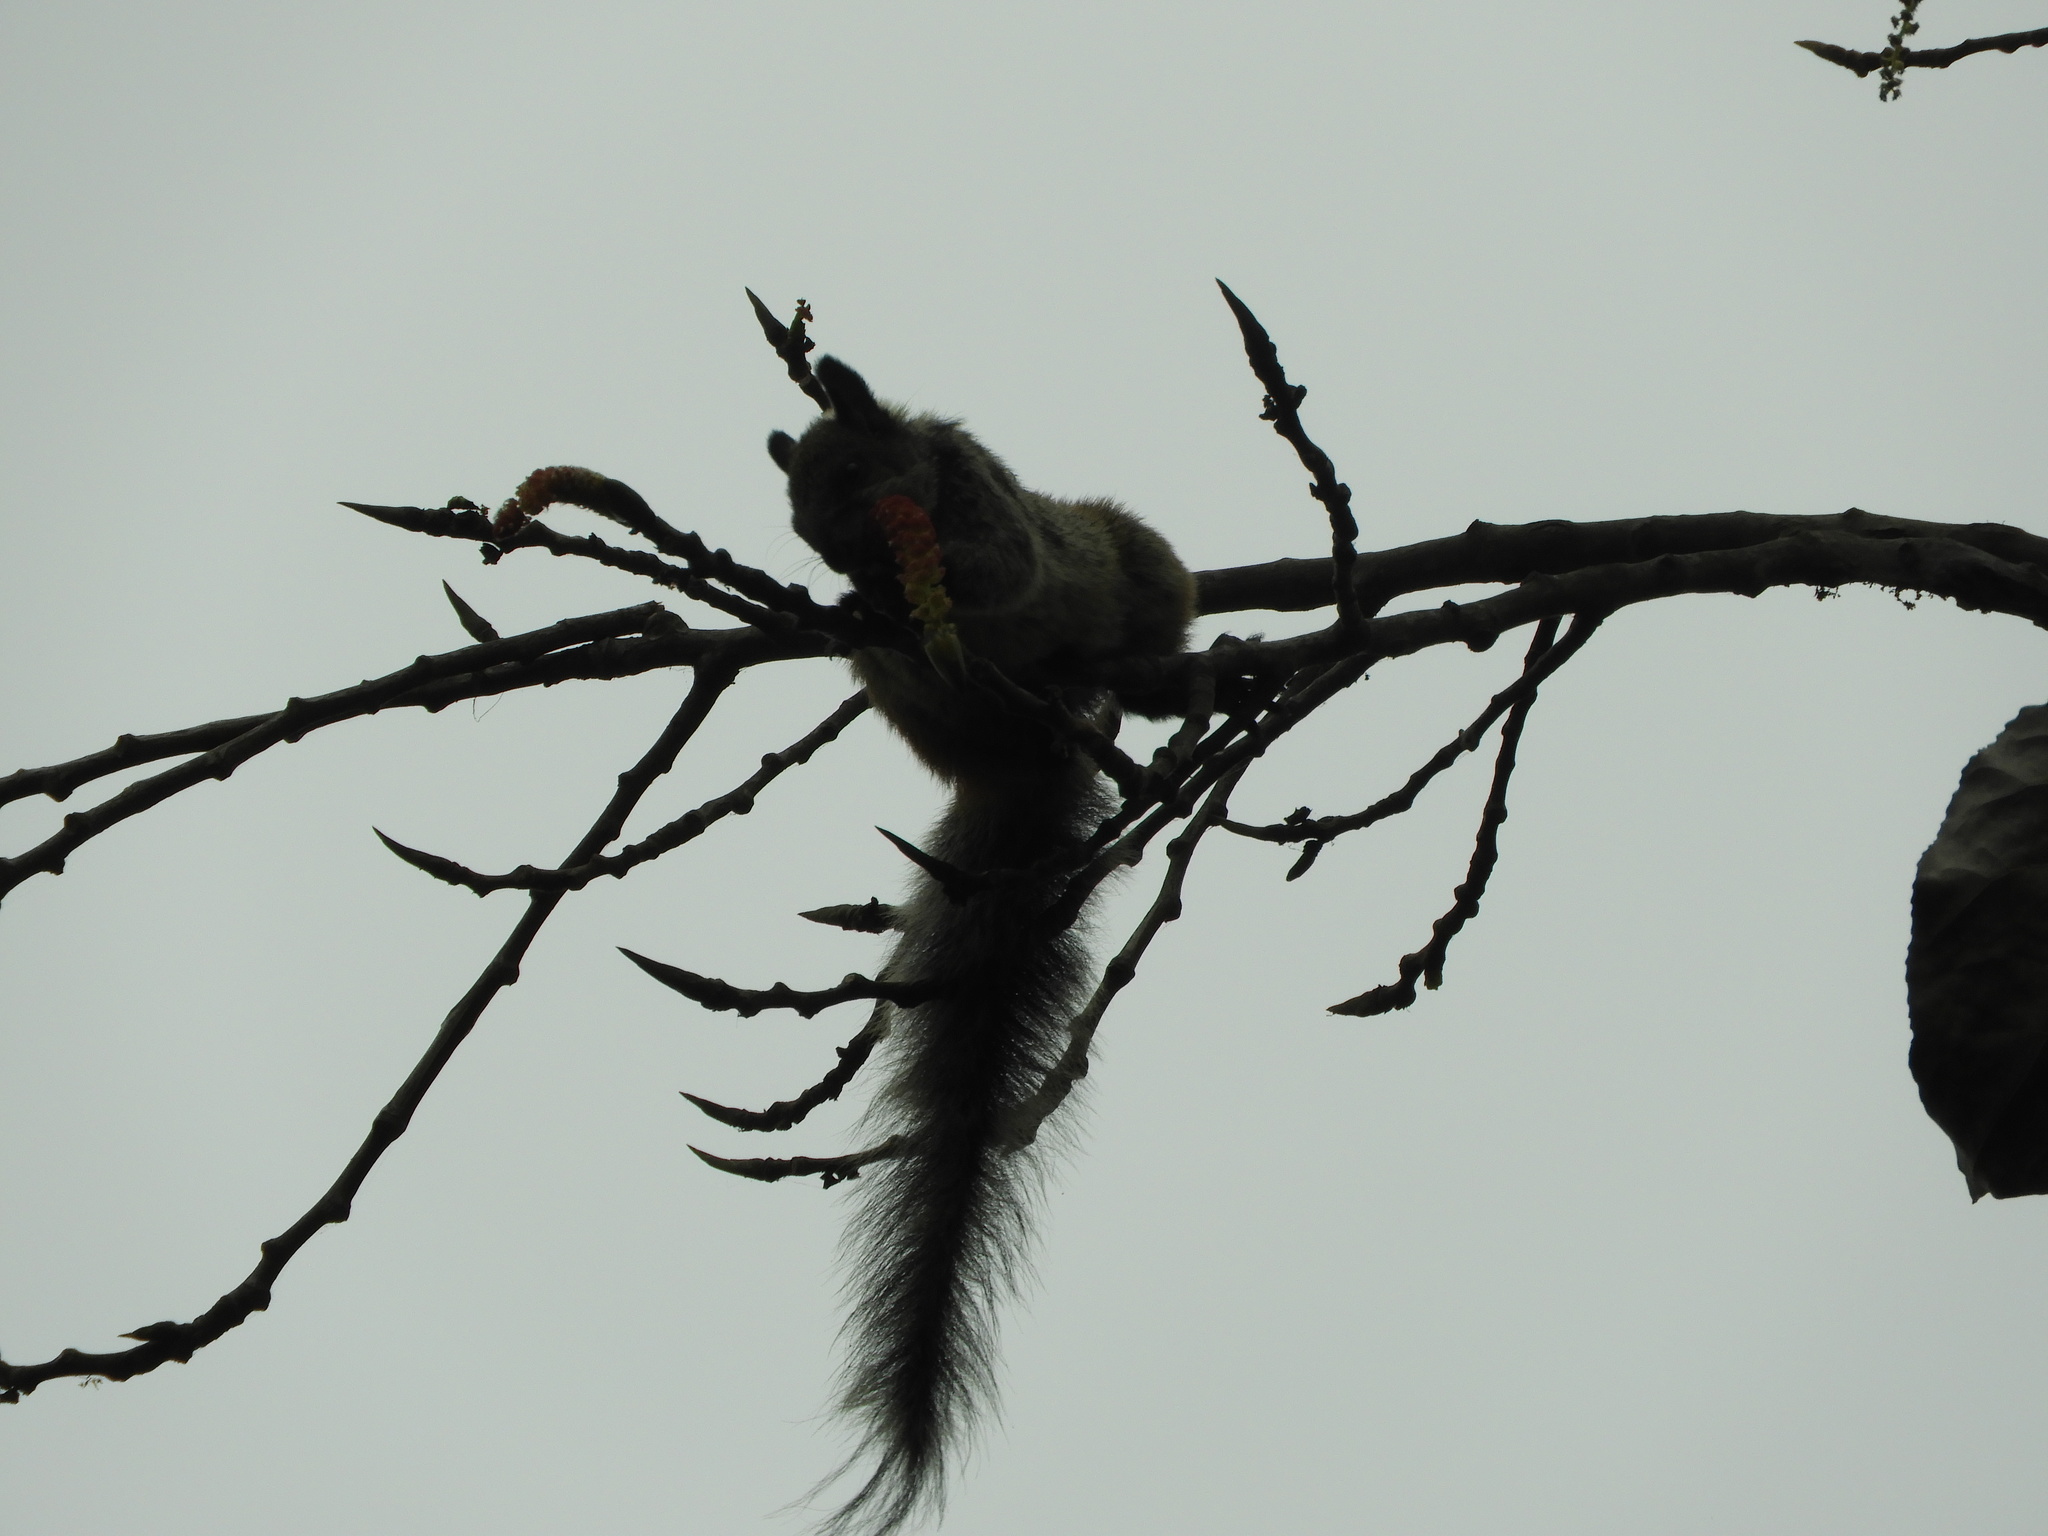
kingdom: Animalia
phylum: Chordata
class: Mammalia
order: Rodentia
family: Sciuridae
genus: Sciurus
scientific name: Sciurus stramineus
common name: Guayaquil squirrel
